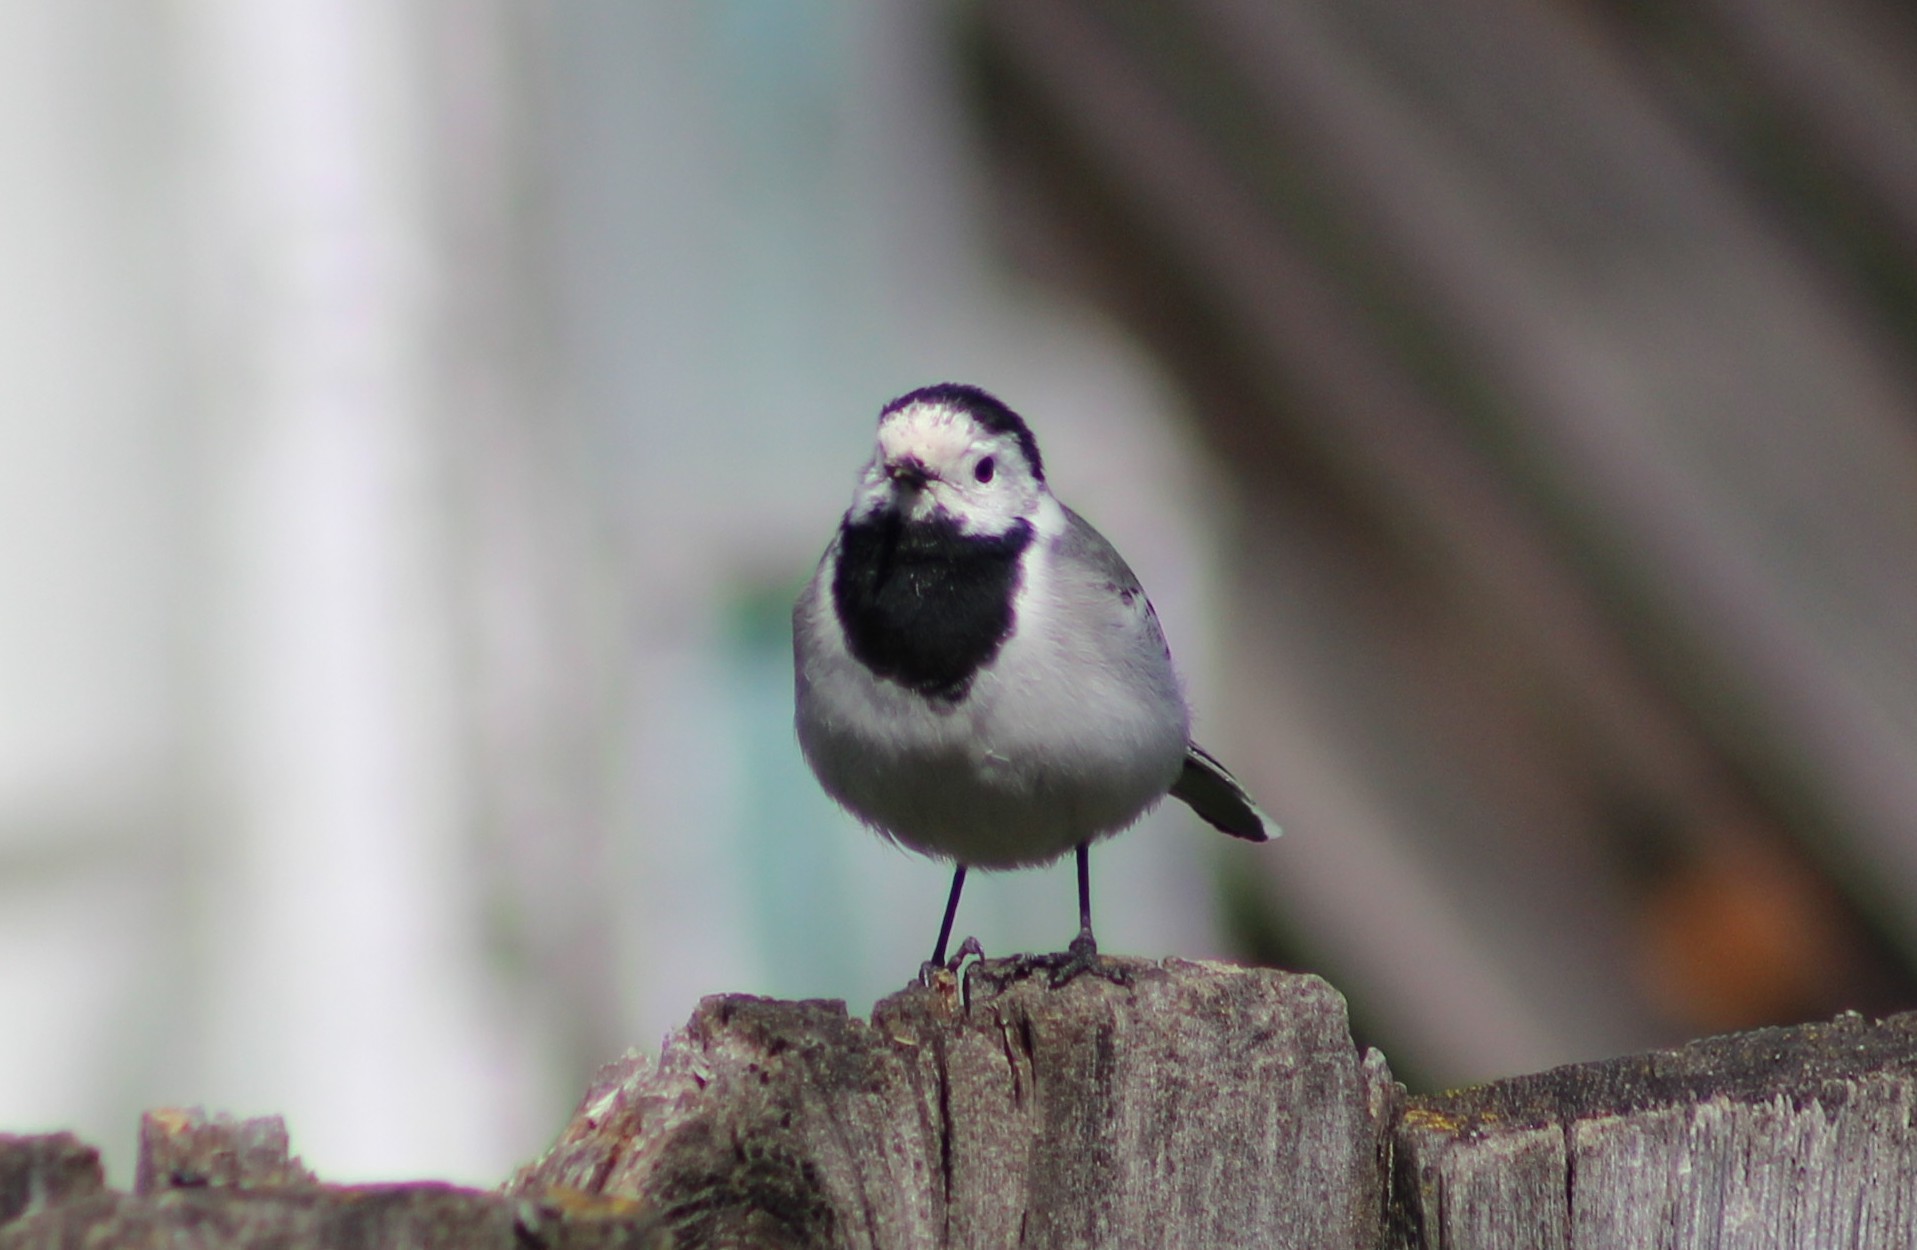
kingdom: Animalia
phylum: Chordata
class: Aves
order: Passeriformes
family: Motacillidae
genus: Motacilla
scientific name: Motacilla alba
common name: White wagtail
